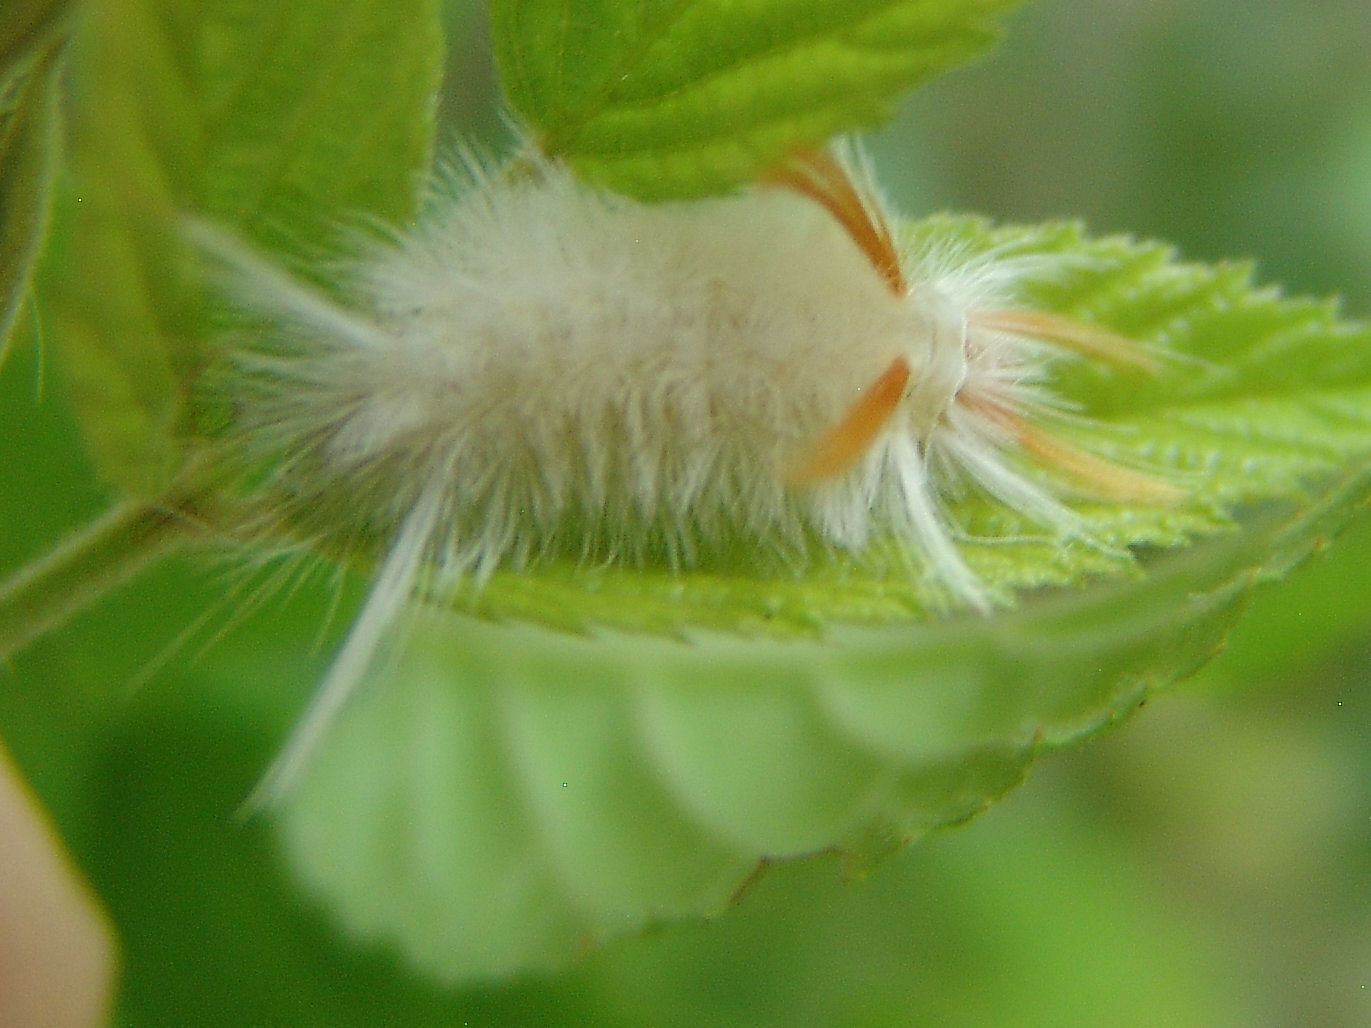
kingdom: Animalia
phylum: Arthropoda
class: Insecta
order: Lepidoptera
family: Erebidae
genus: Halysidota
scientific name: Halysidota harrisii
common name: Sycamore tussock moth
